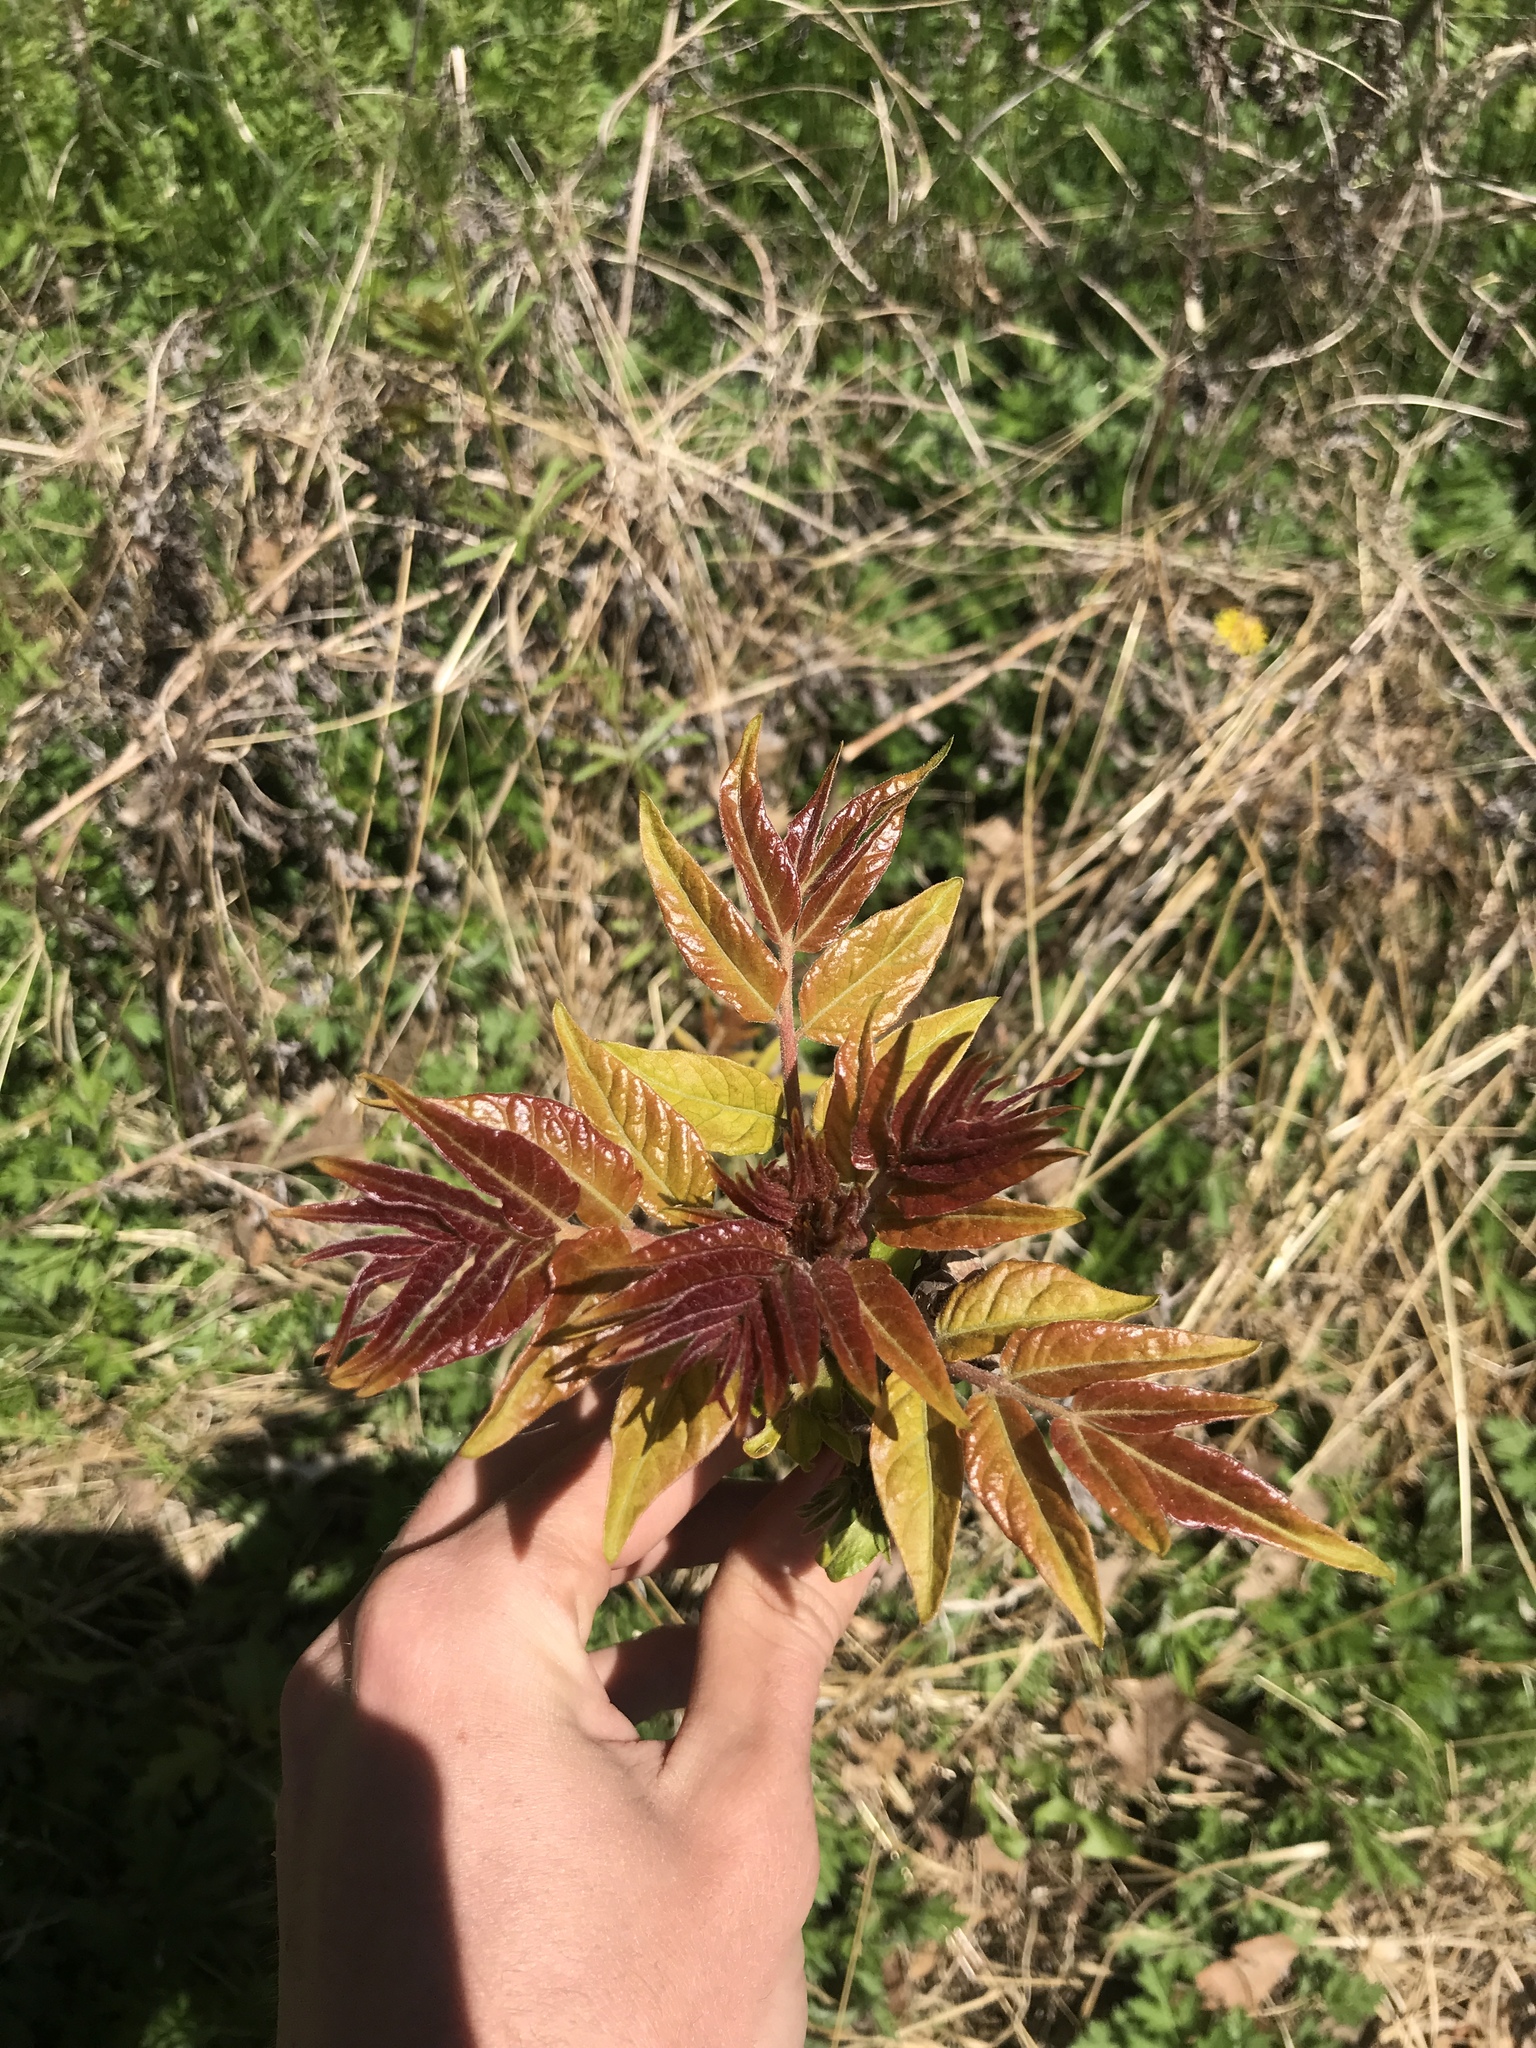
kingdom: Plantae
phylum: Tracheophyta
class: Magnoliopsida
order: Sapindales
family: Simaroubaceae
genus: Ailanthus
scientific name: Ailanthus altissima
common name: Tree-of-heaven
